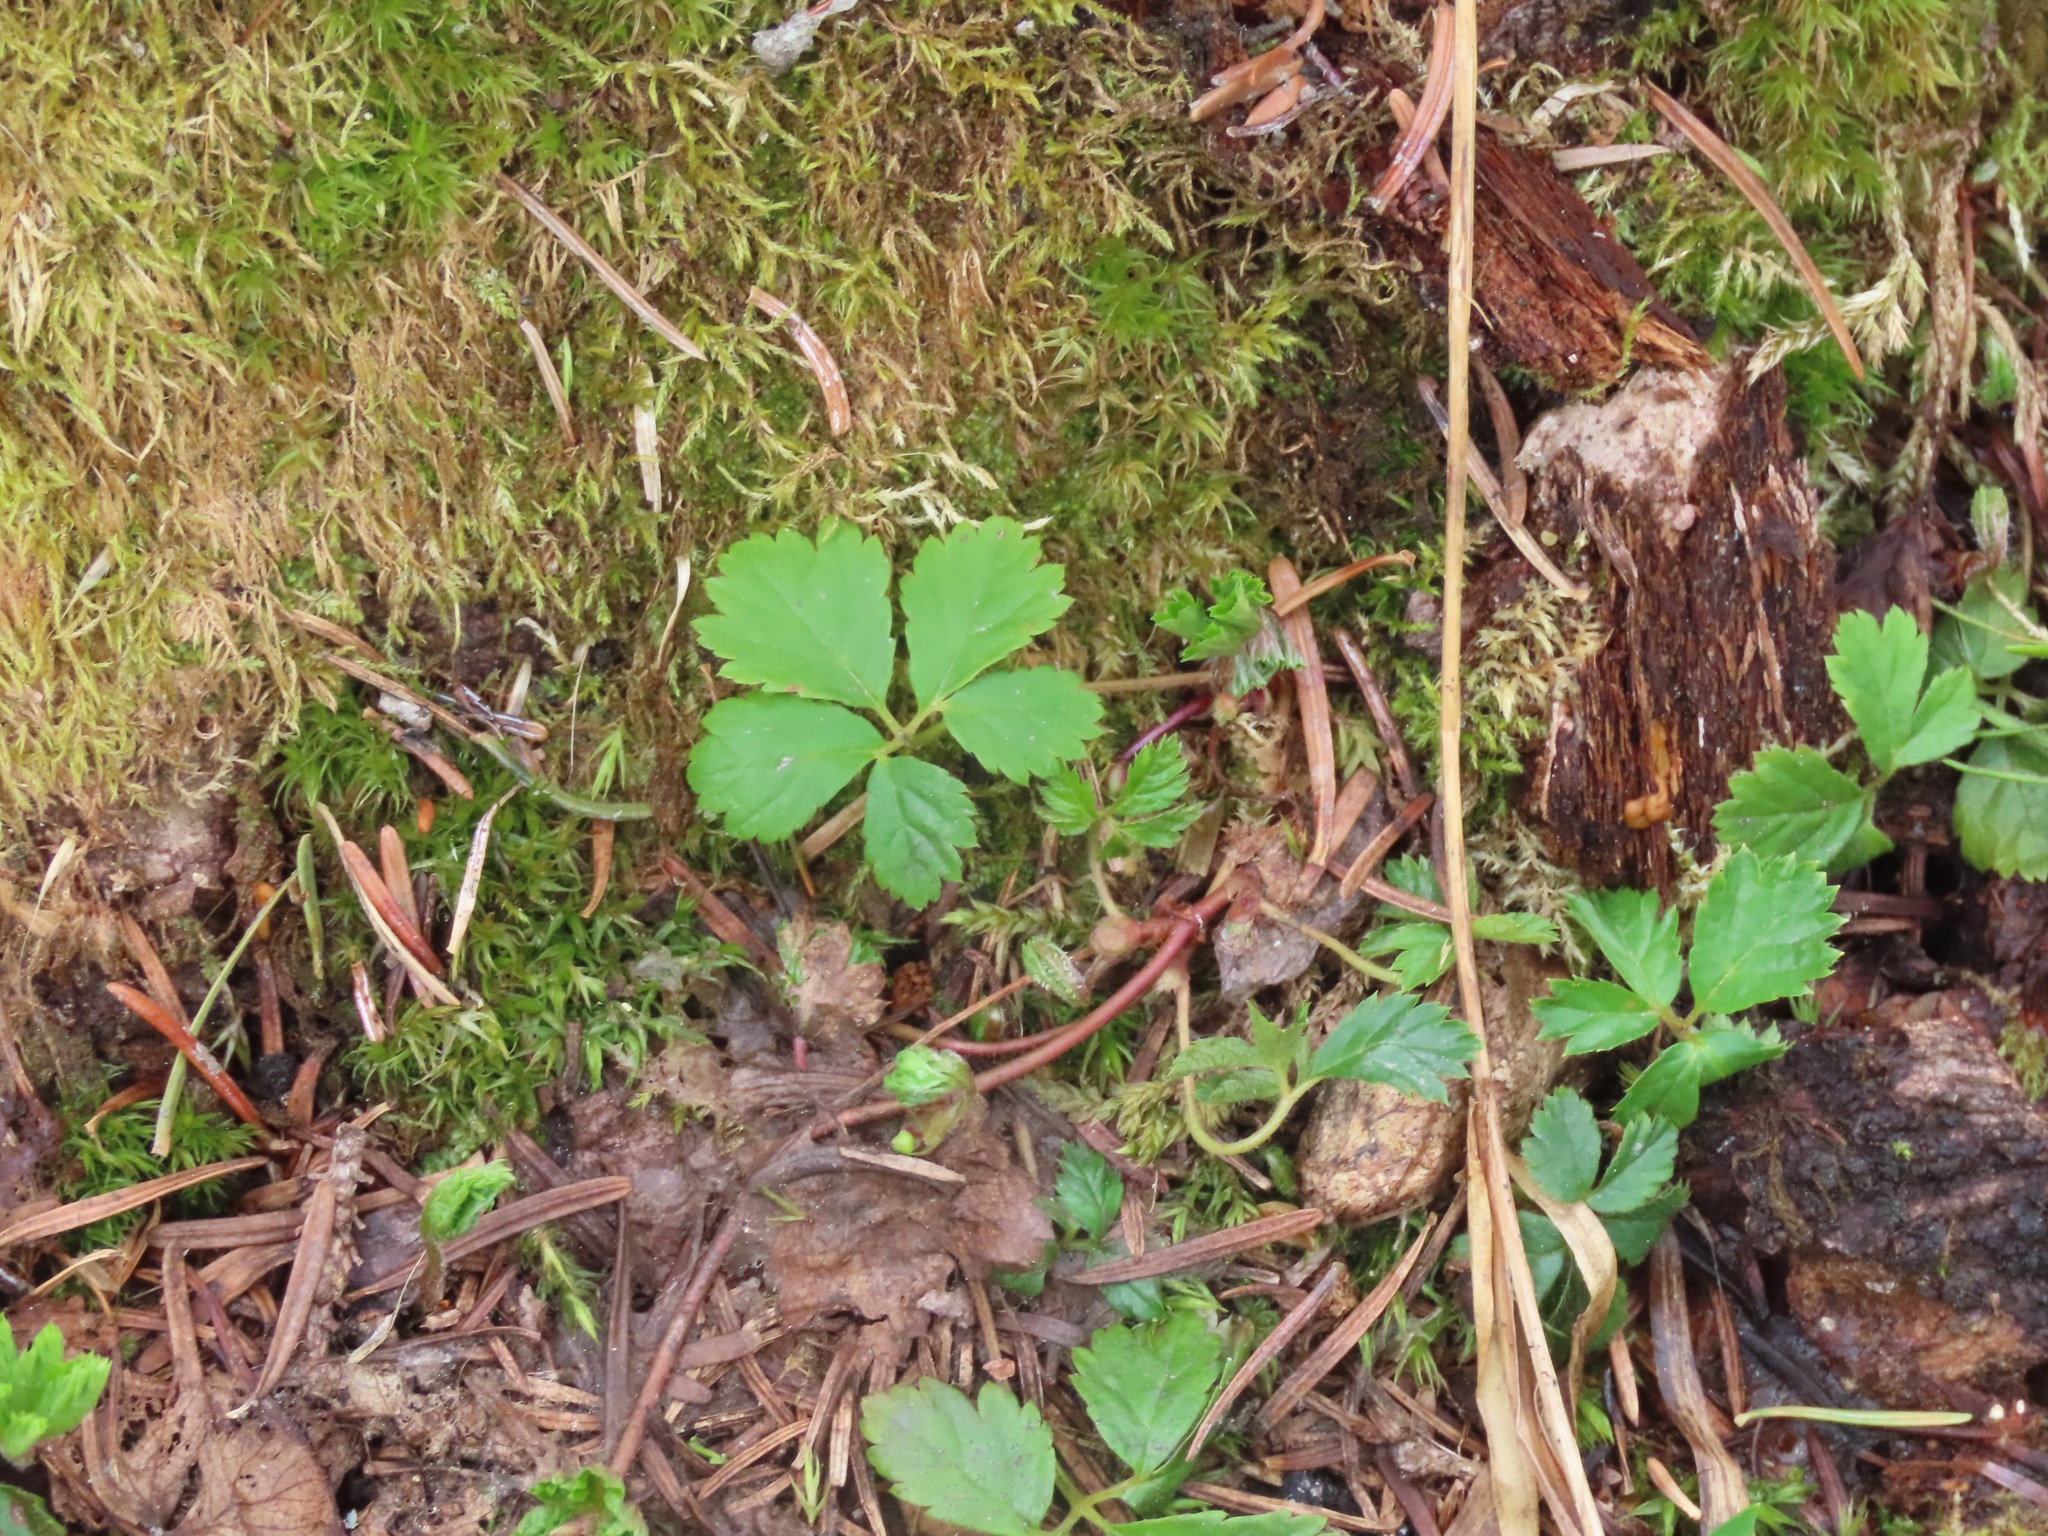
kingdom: Plantae
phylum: Tracheophyta
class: Magnoliopsida
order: Rosales
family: Rosaceae
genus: Rubus
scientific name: Rubus pedatus
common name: Creeping raspberry
